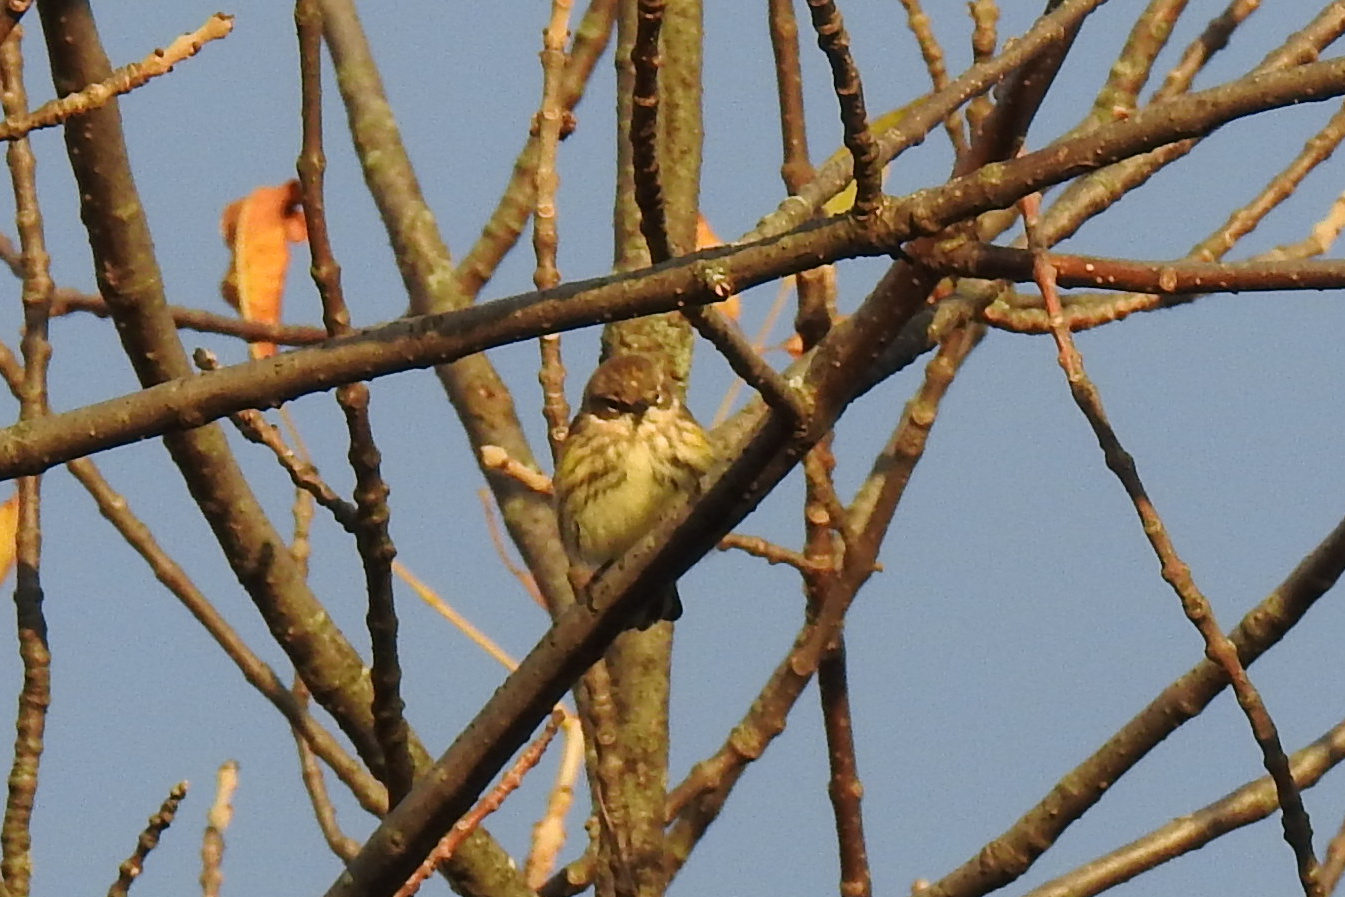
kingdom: Animalia
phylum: Chordata
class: Aves
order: Passeriformes
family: Parulidae
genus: Setophaga
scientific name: Setophaga coronata
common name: Myrtle warbler
